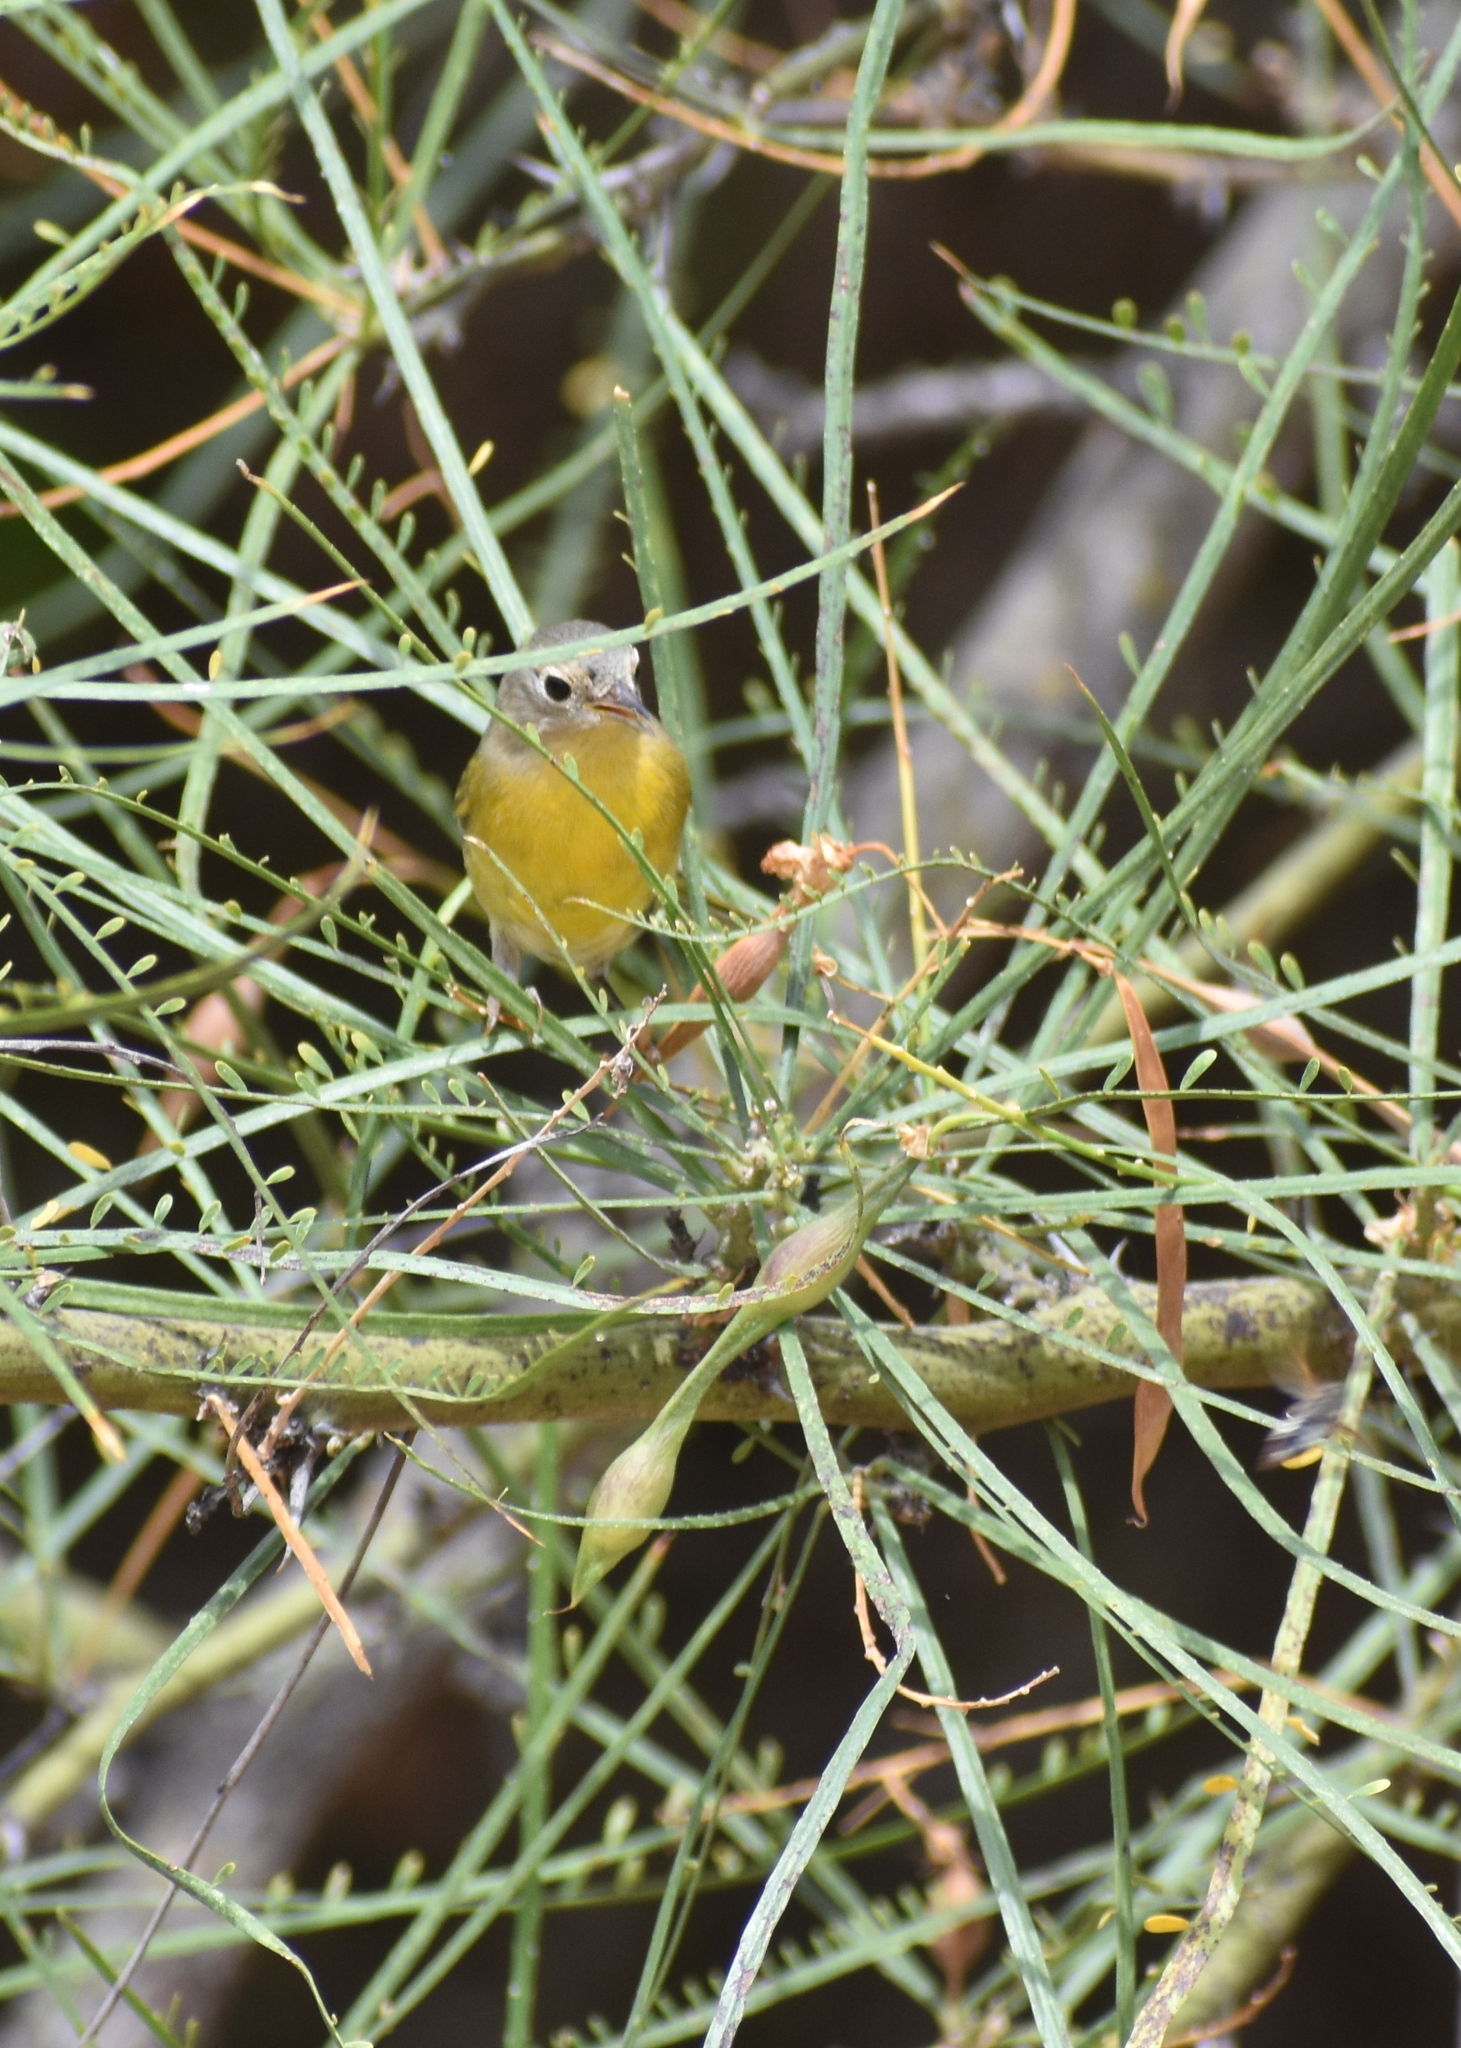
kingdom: Animalia
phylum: Chordata
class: Aves
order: Passeriformes
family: Parulidae
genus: Leiothlypis
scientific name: Leiothlypis ruficapilla
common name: Nashville warbler
